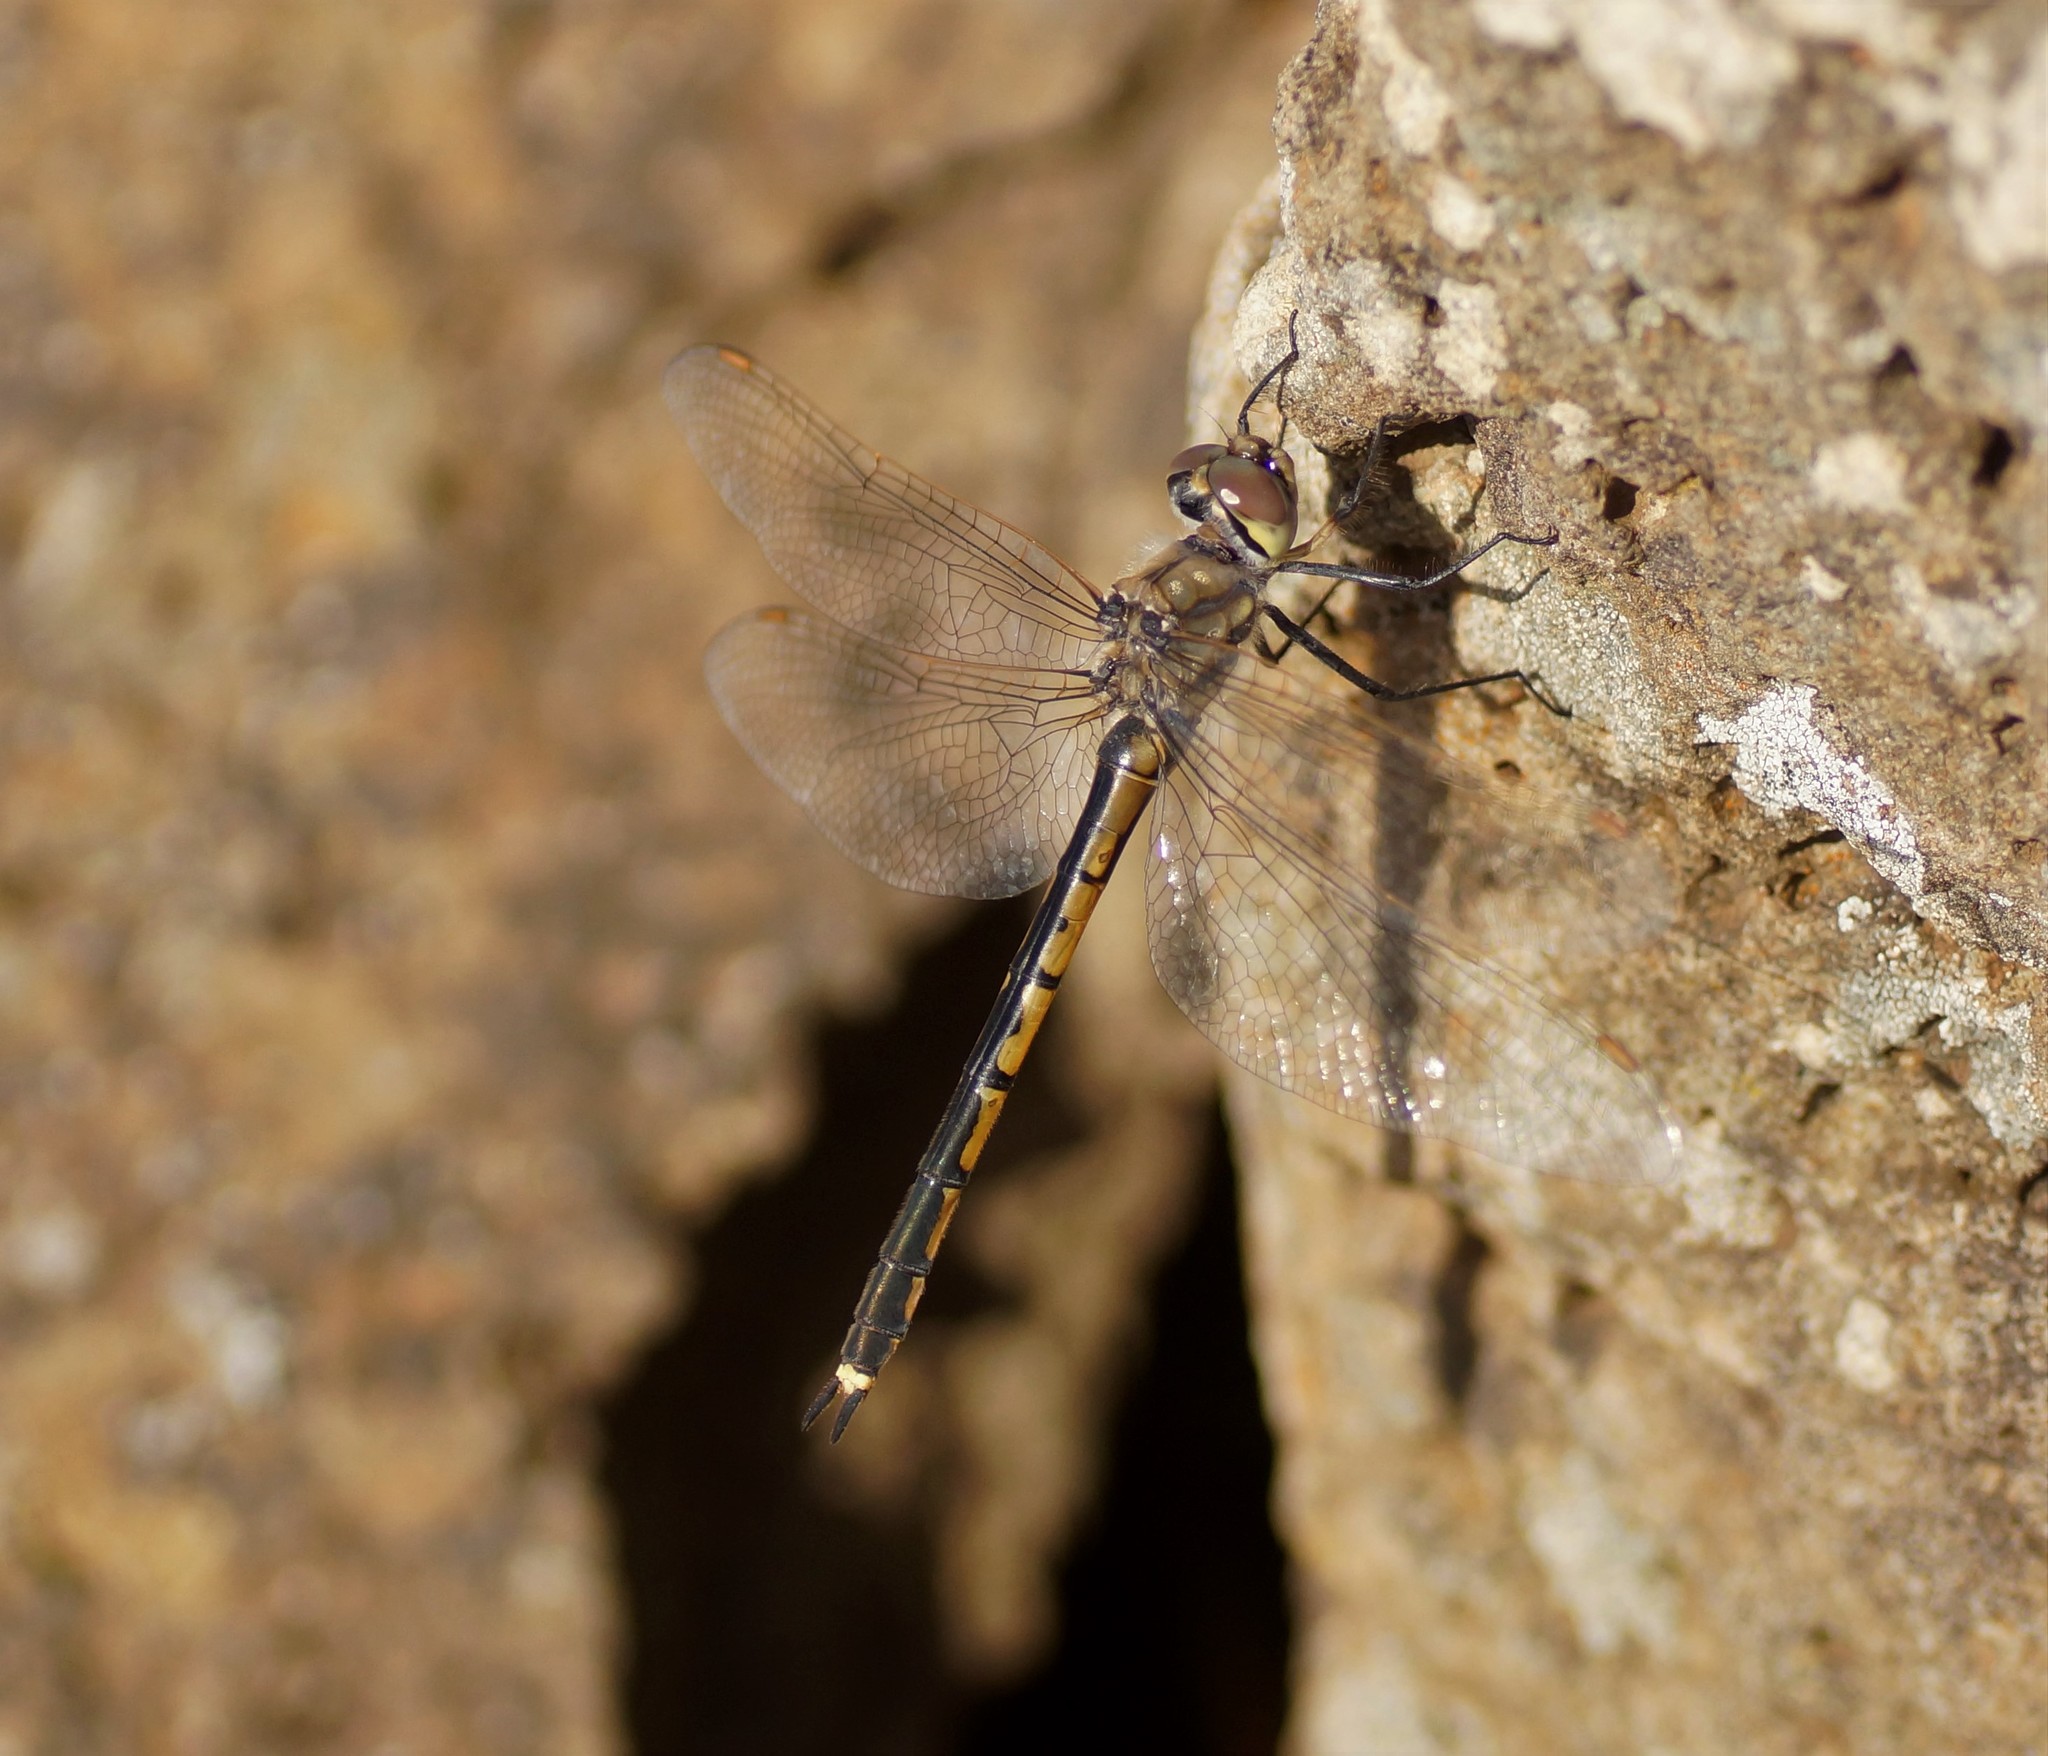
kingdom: Animalia
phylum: Arthropoda
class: Insecta
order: Odonata
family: Corduliidae
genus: Hemicordulia
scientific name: Hemicordulia tau
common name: Tau emerald
